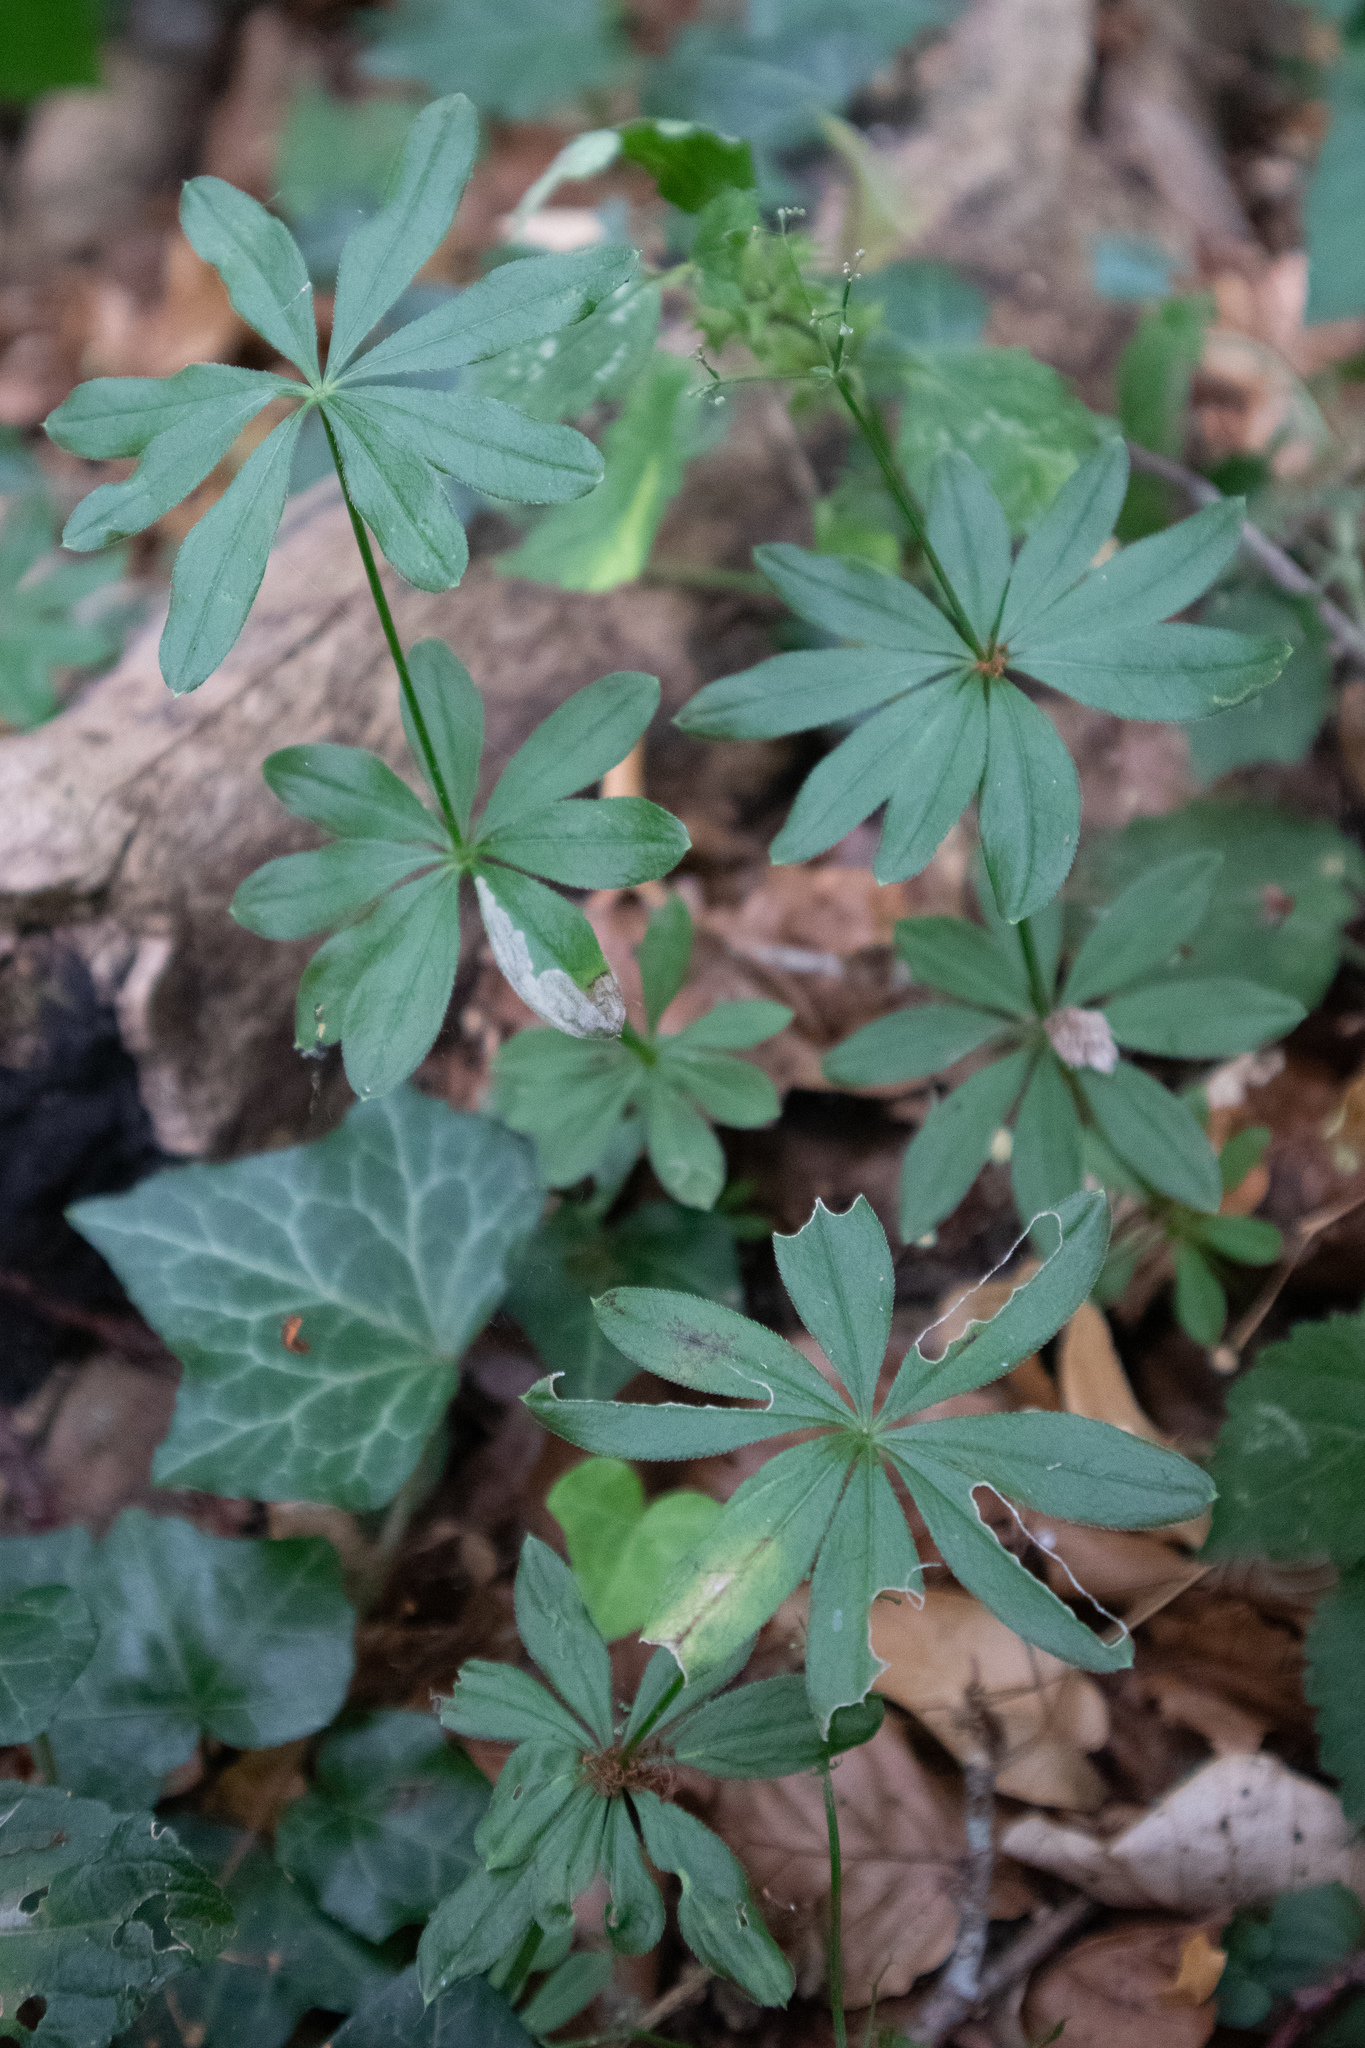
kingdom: Plantae
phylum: Tracheophyta
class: Magnoliopsida
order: Gentianales
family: Rubiaceae
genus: Galium
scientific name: Galium odoratum
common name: Sweet woodruff
